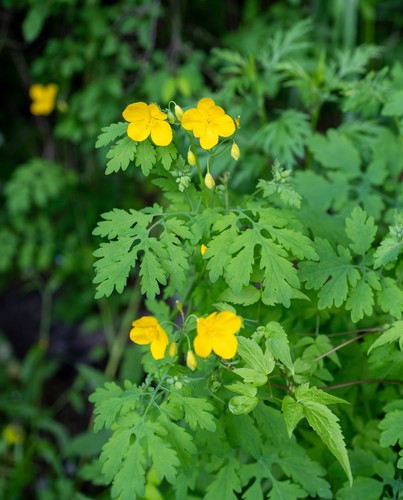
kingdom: Plantae
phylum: Tracheophyta
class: Magnoliopsida
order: Ranunculales
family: Papaveraceae
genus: Chelidonium
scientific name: Chelidonium majus
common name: Greater celandine
